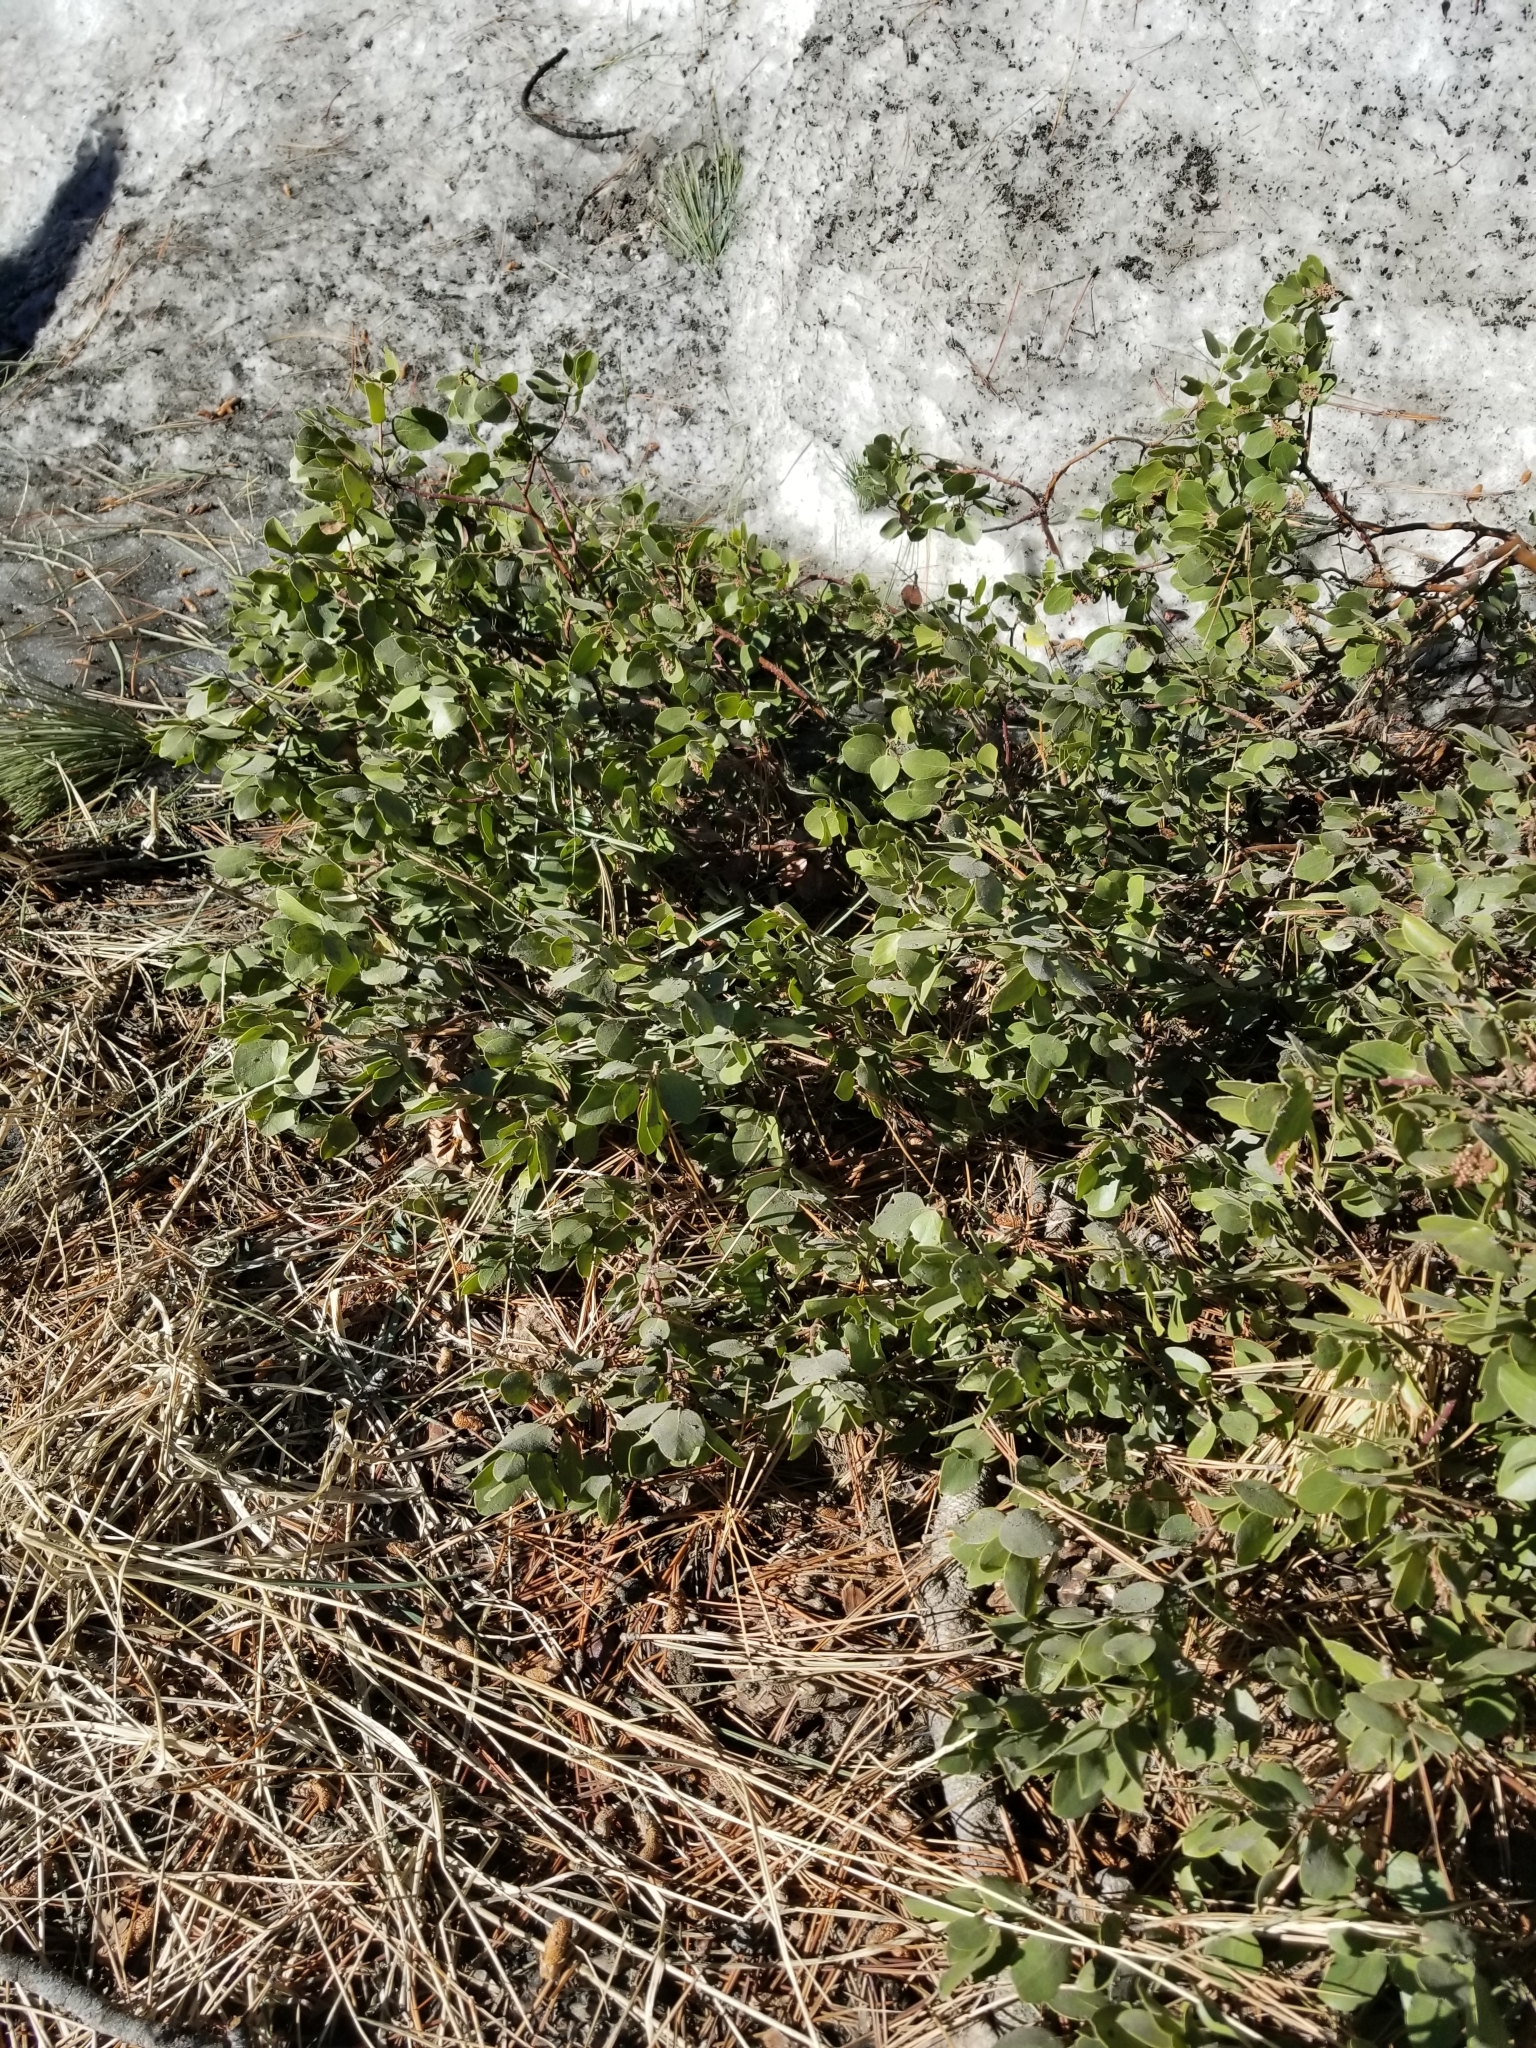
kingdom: Plantae
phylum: Tracheophyta
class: Magnoliopsida
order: Ericales
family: Ericaceae
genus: Arctostaphylos
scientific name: Arctostaphylos patula
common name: Green-leaf manzanita
